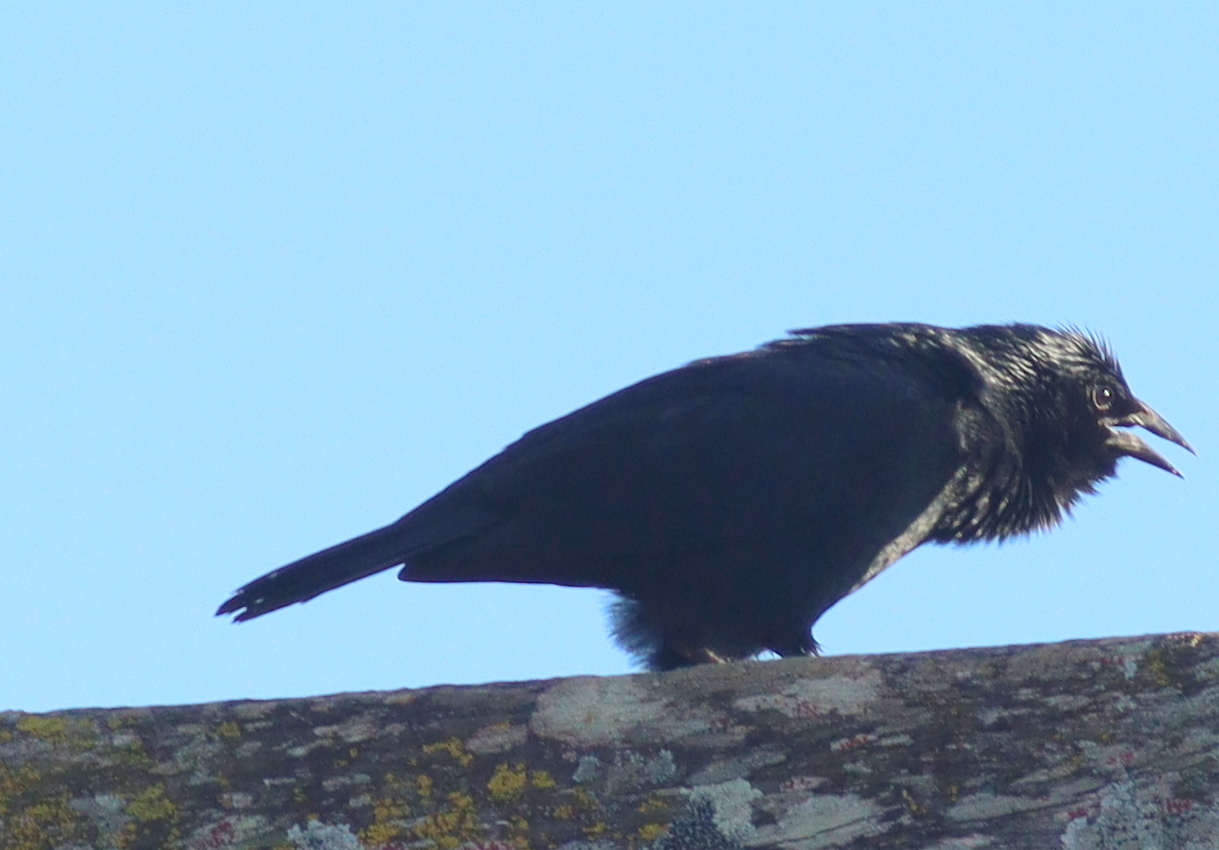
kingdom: Animalia
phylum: Chordata
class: Aves
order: Passeriformes
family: Icteridae
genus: Gnorimopsar
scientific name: Gnorimopsar chopi
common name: Chopi blackbird
